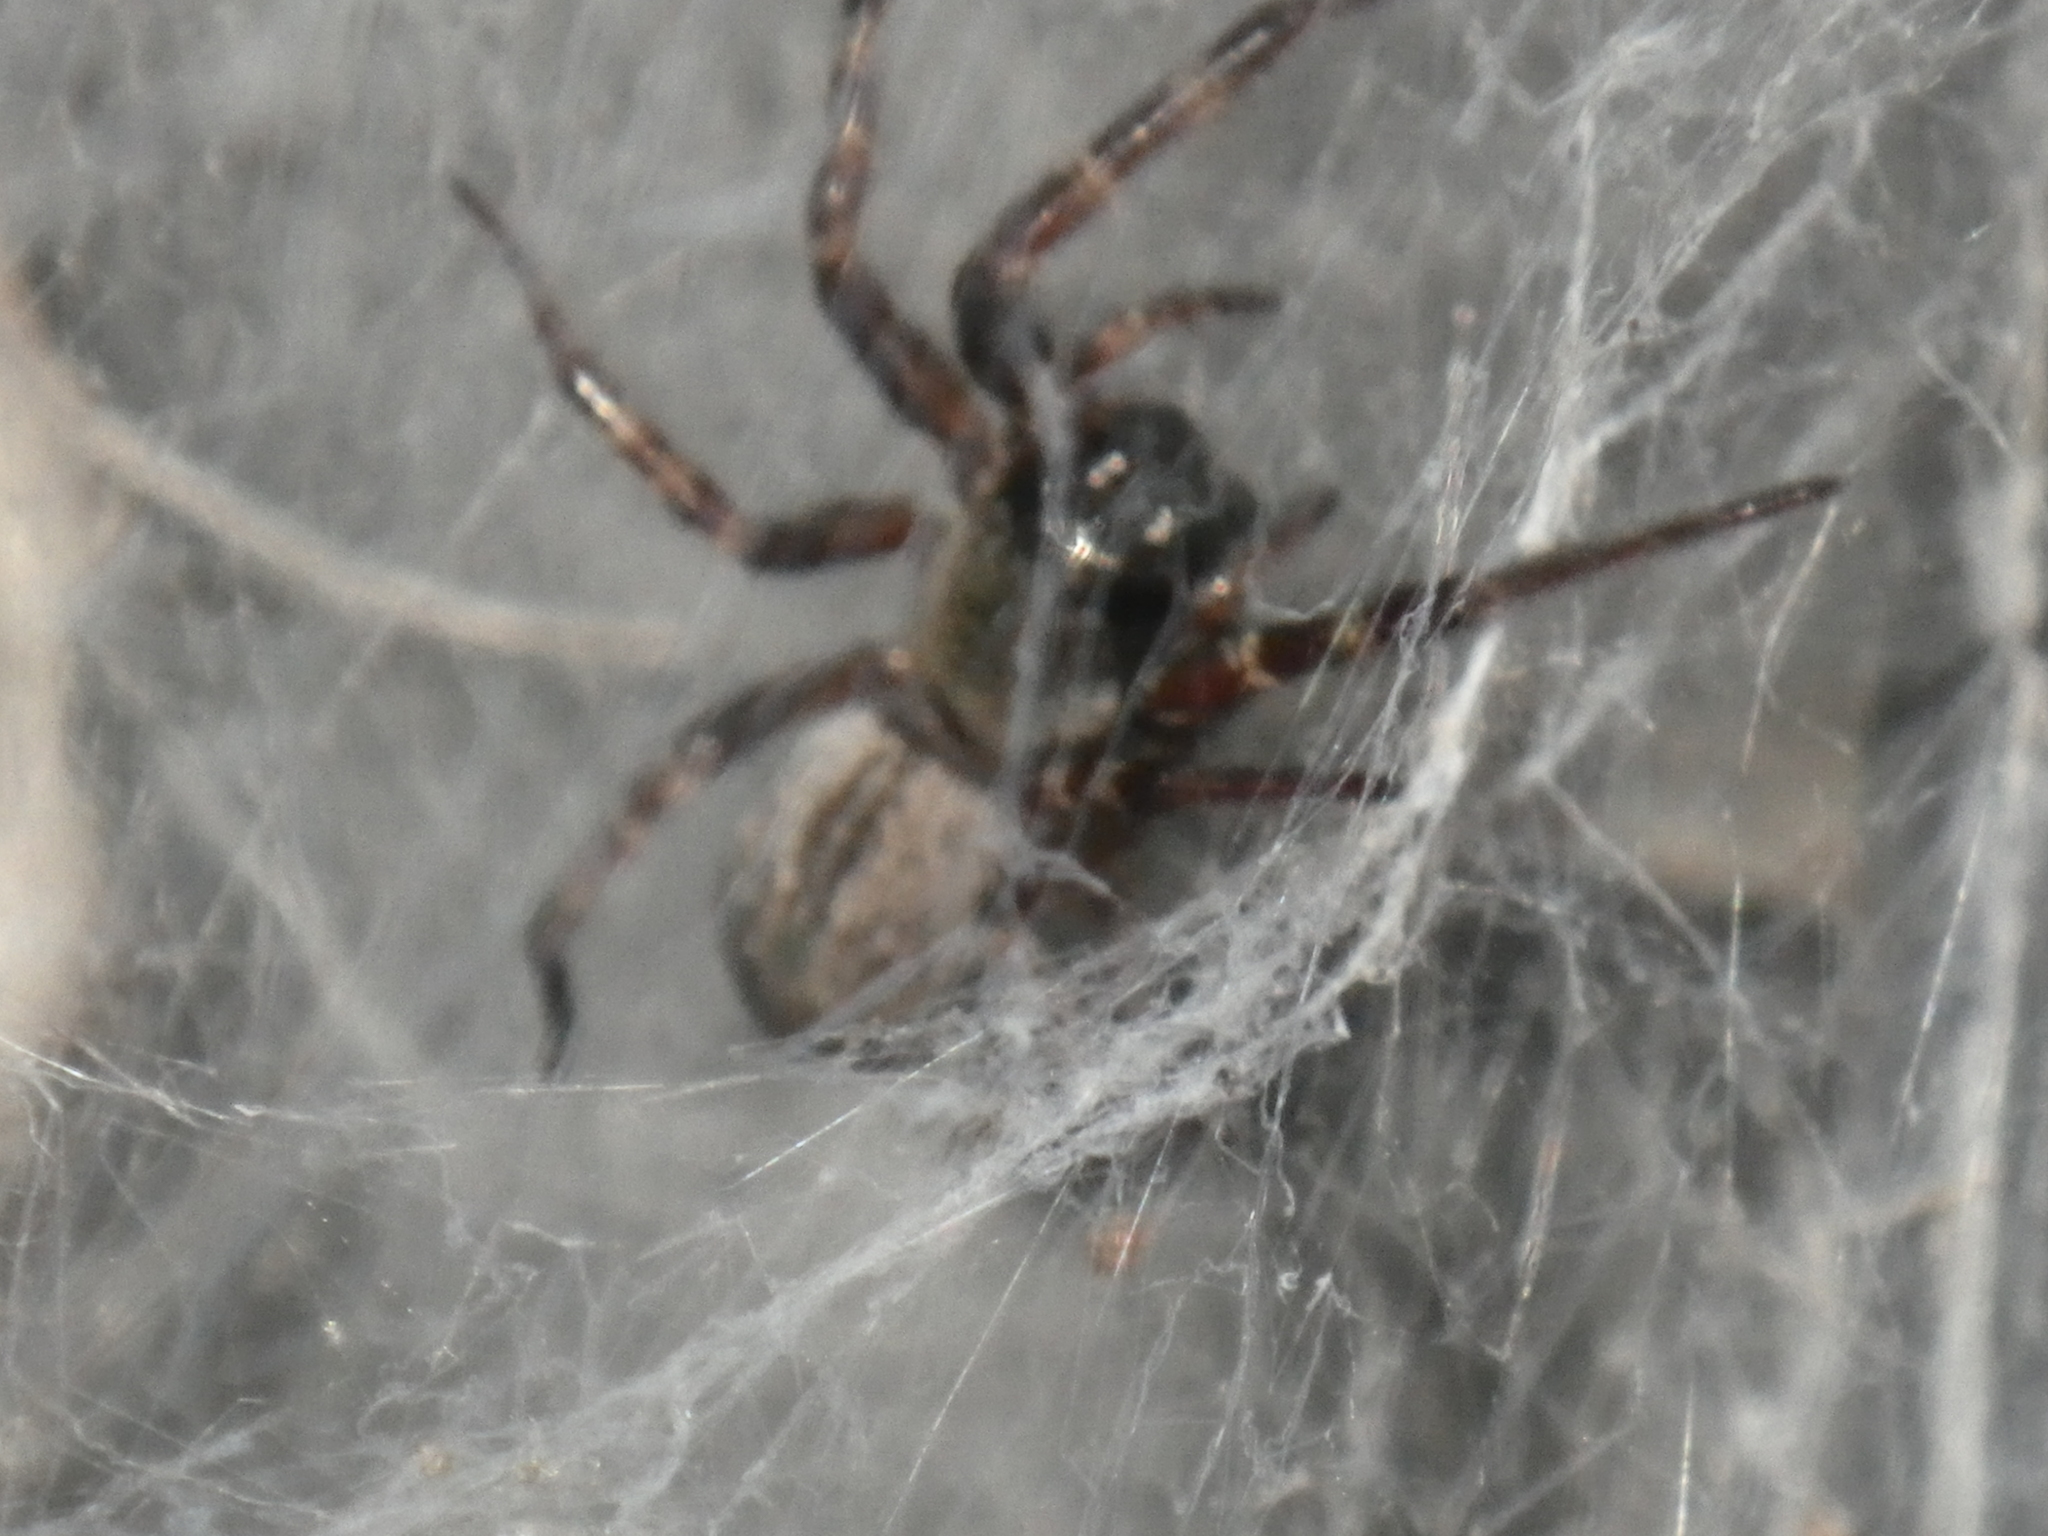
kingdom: Animalia
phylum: Arthropoda
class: Arachnida
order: Araneae
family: Desidae
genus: Badumna
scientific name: Badumna longinqua
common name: Gray house spider
